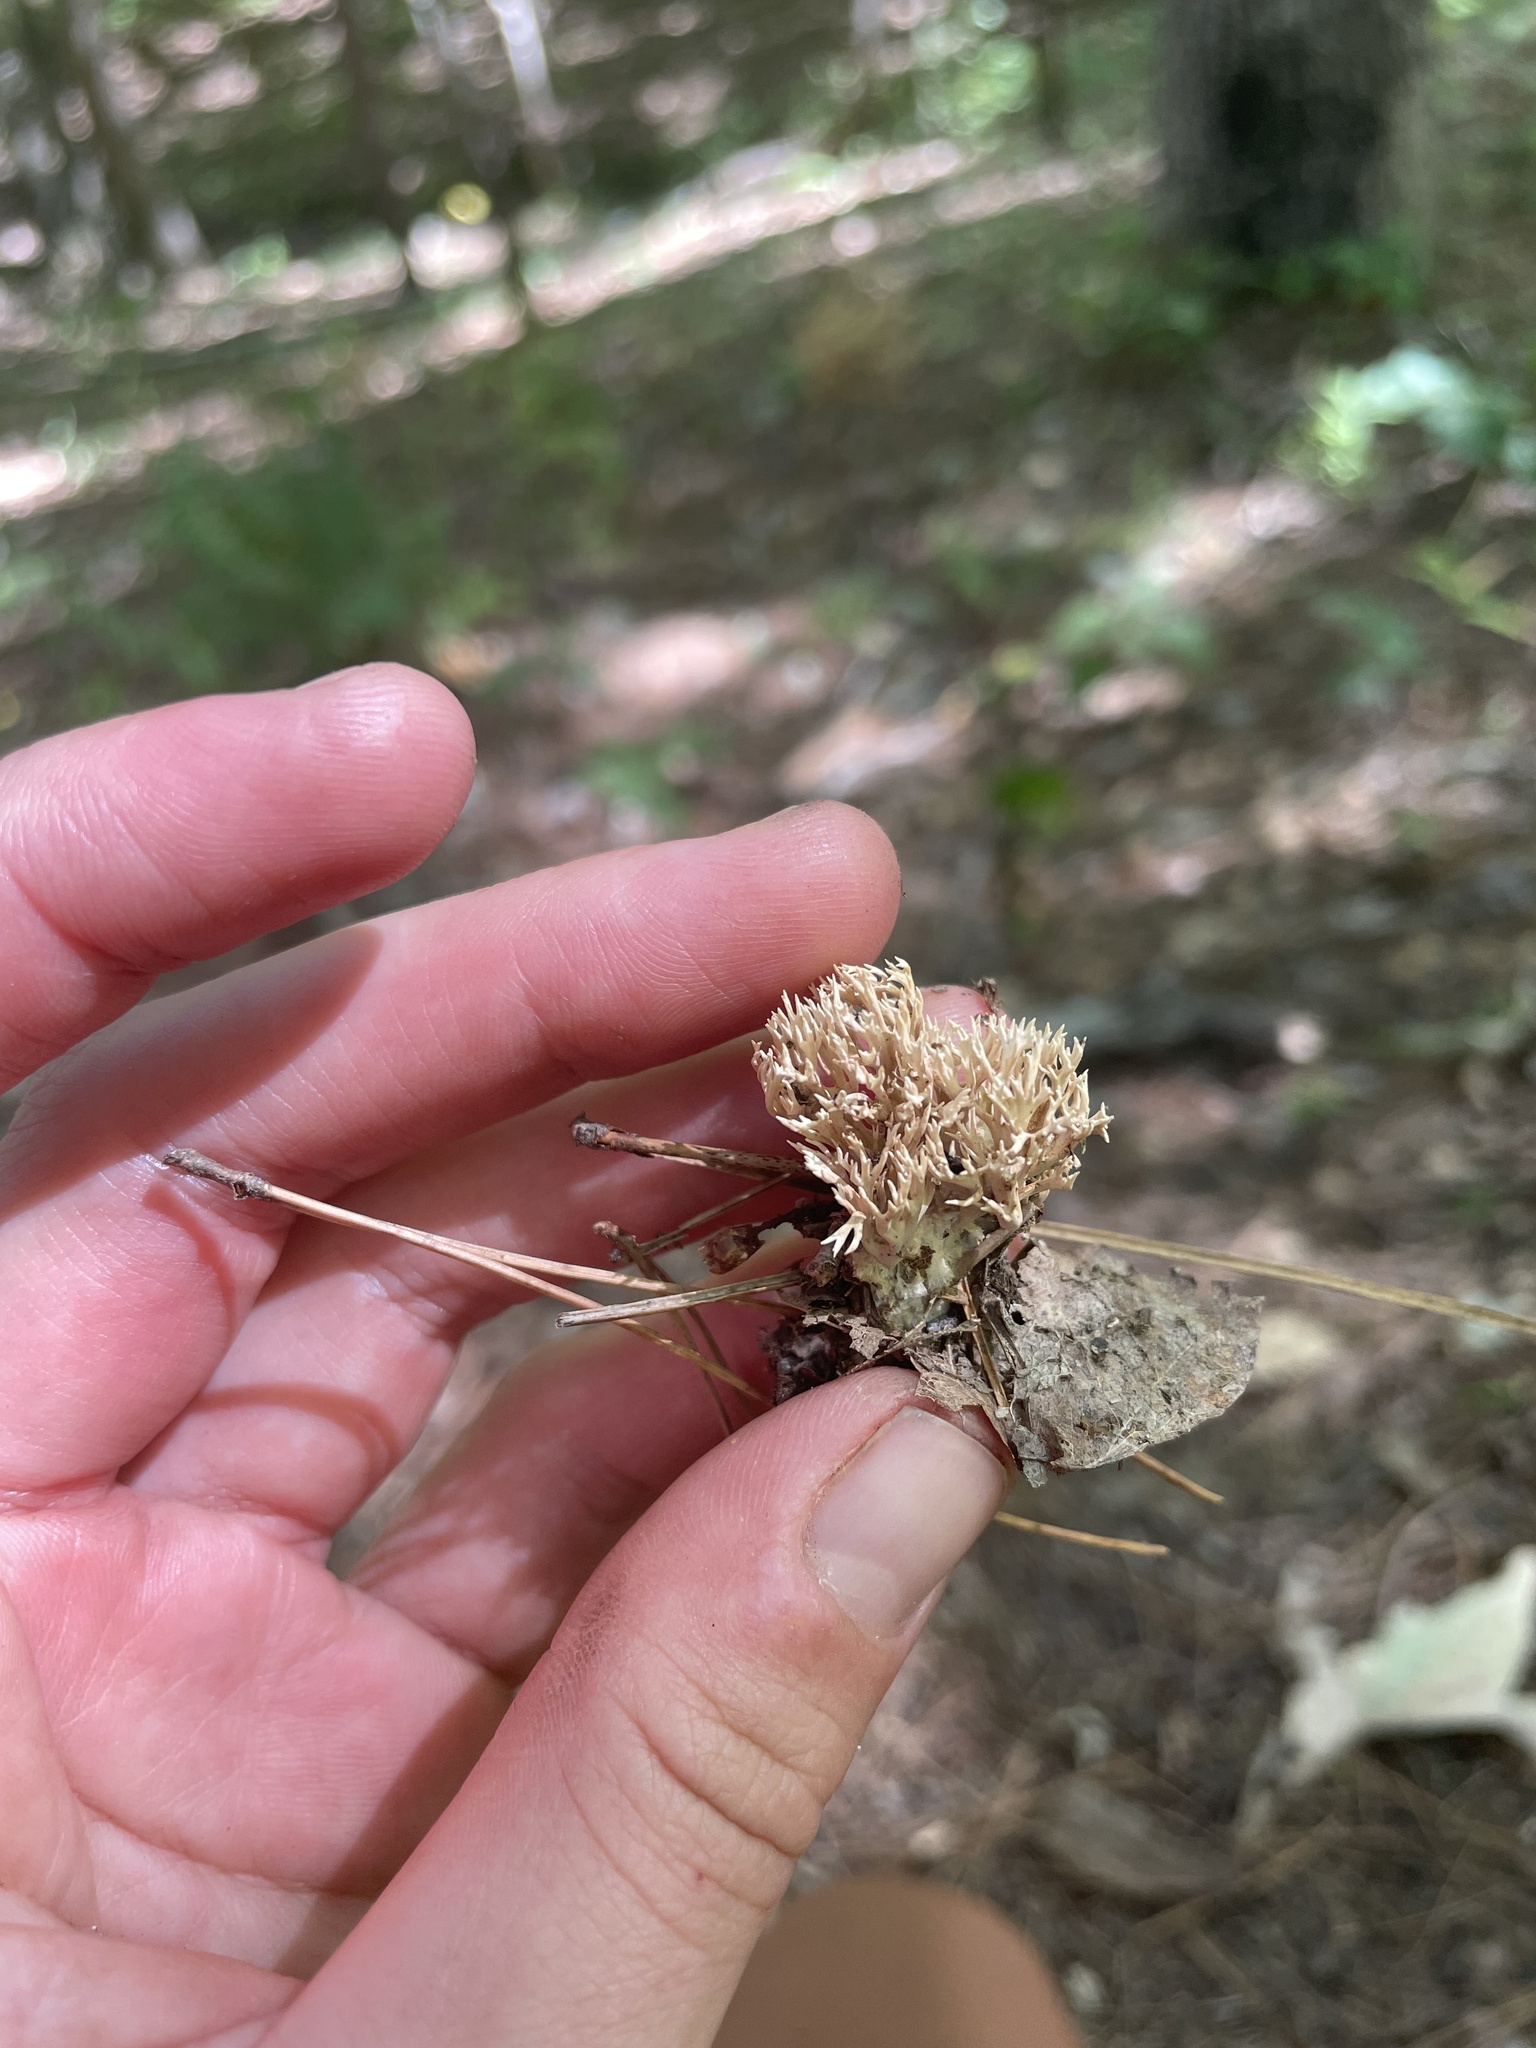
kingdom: Fungi
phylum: Basidiomycota
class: Agaricomycetes
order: Gomphales
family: Lentariaceae
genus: Lentaria
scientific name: Lentaria micheneri
